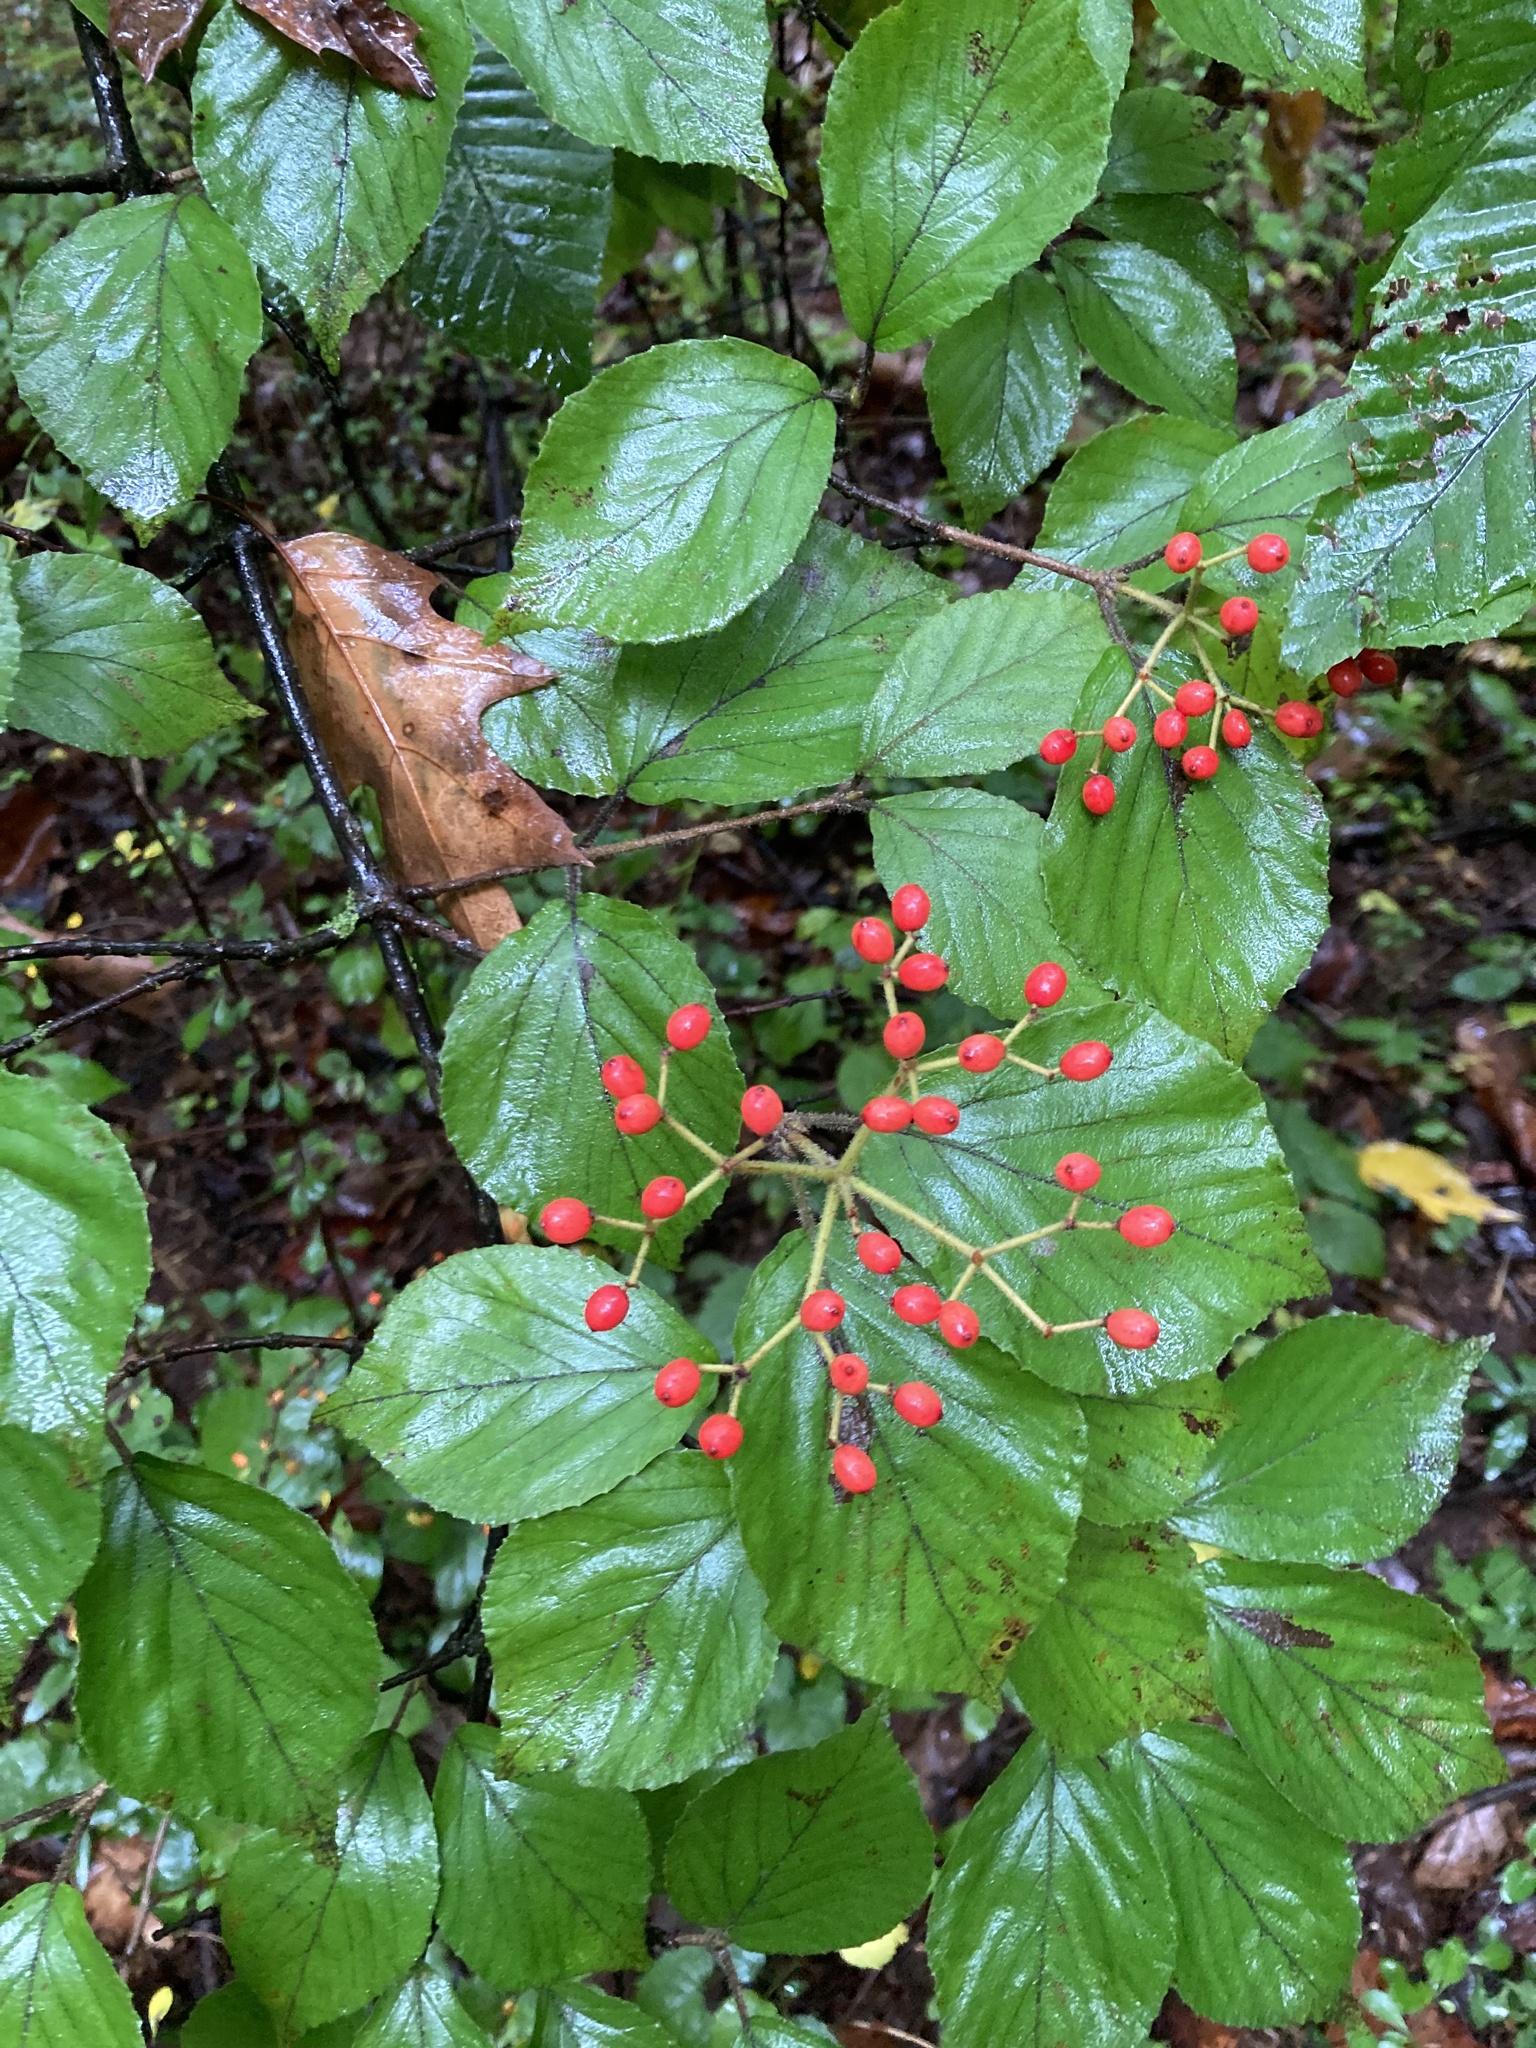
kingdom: Plantae
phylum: Tracheophyta
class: Magnoliopsida
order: Dipsacales
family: Viburnaceae
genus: Viburnum
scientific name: Viburnum dilatatum
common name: Linden arrowwood
